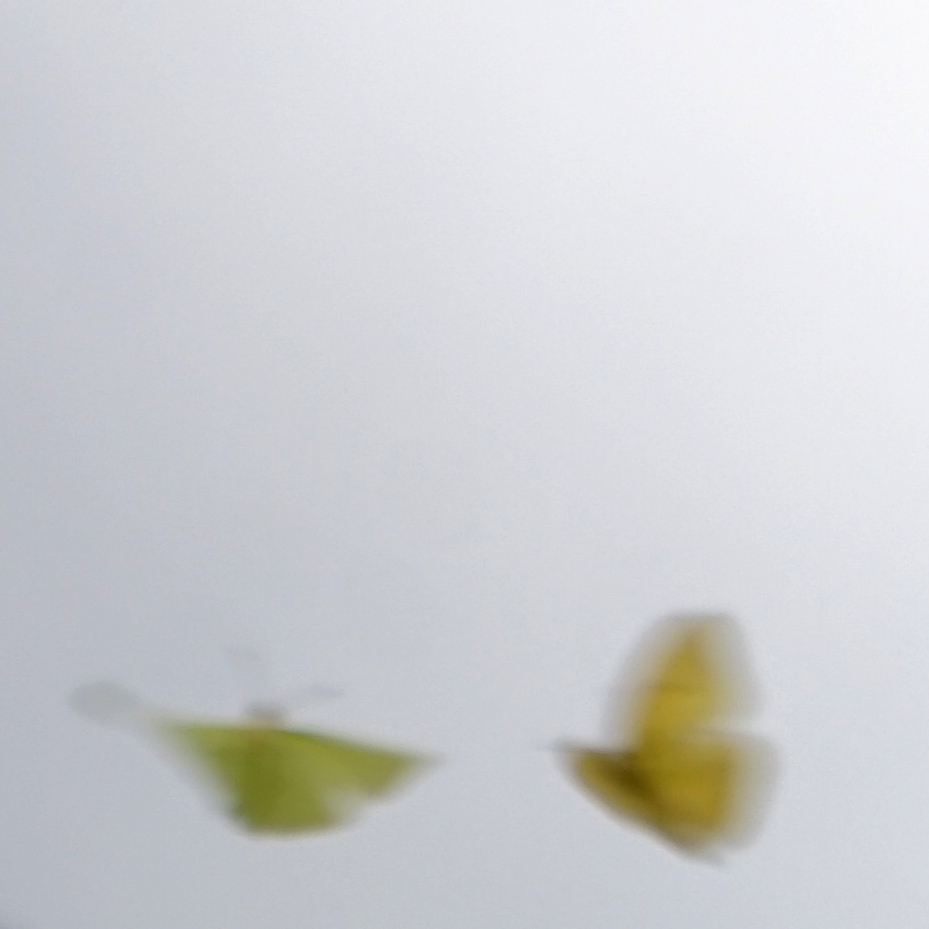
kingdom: Animalia
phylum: Arthropoda
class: Insecta
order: Lepidoptera
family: Pieridae
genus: Phoebis
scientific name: Phoebis sennae
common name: Cloudless sulphur
